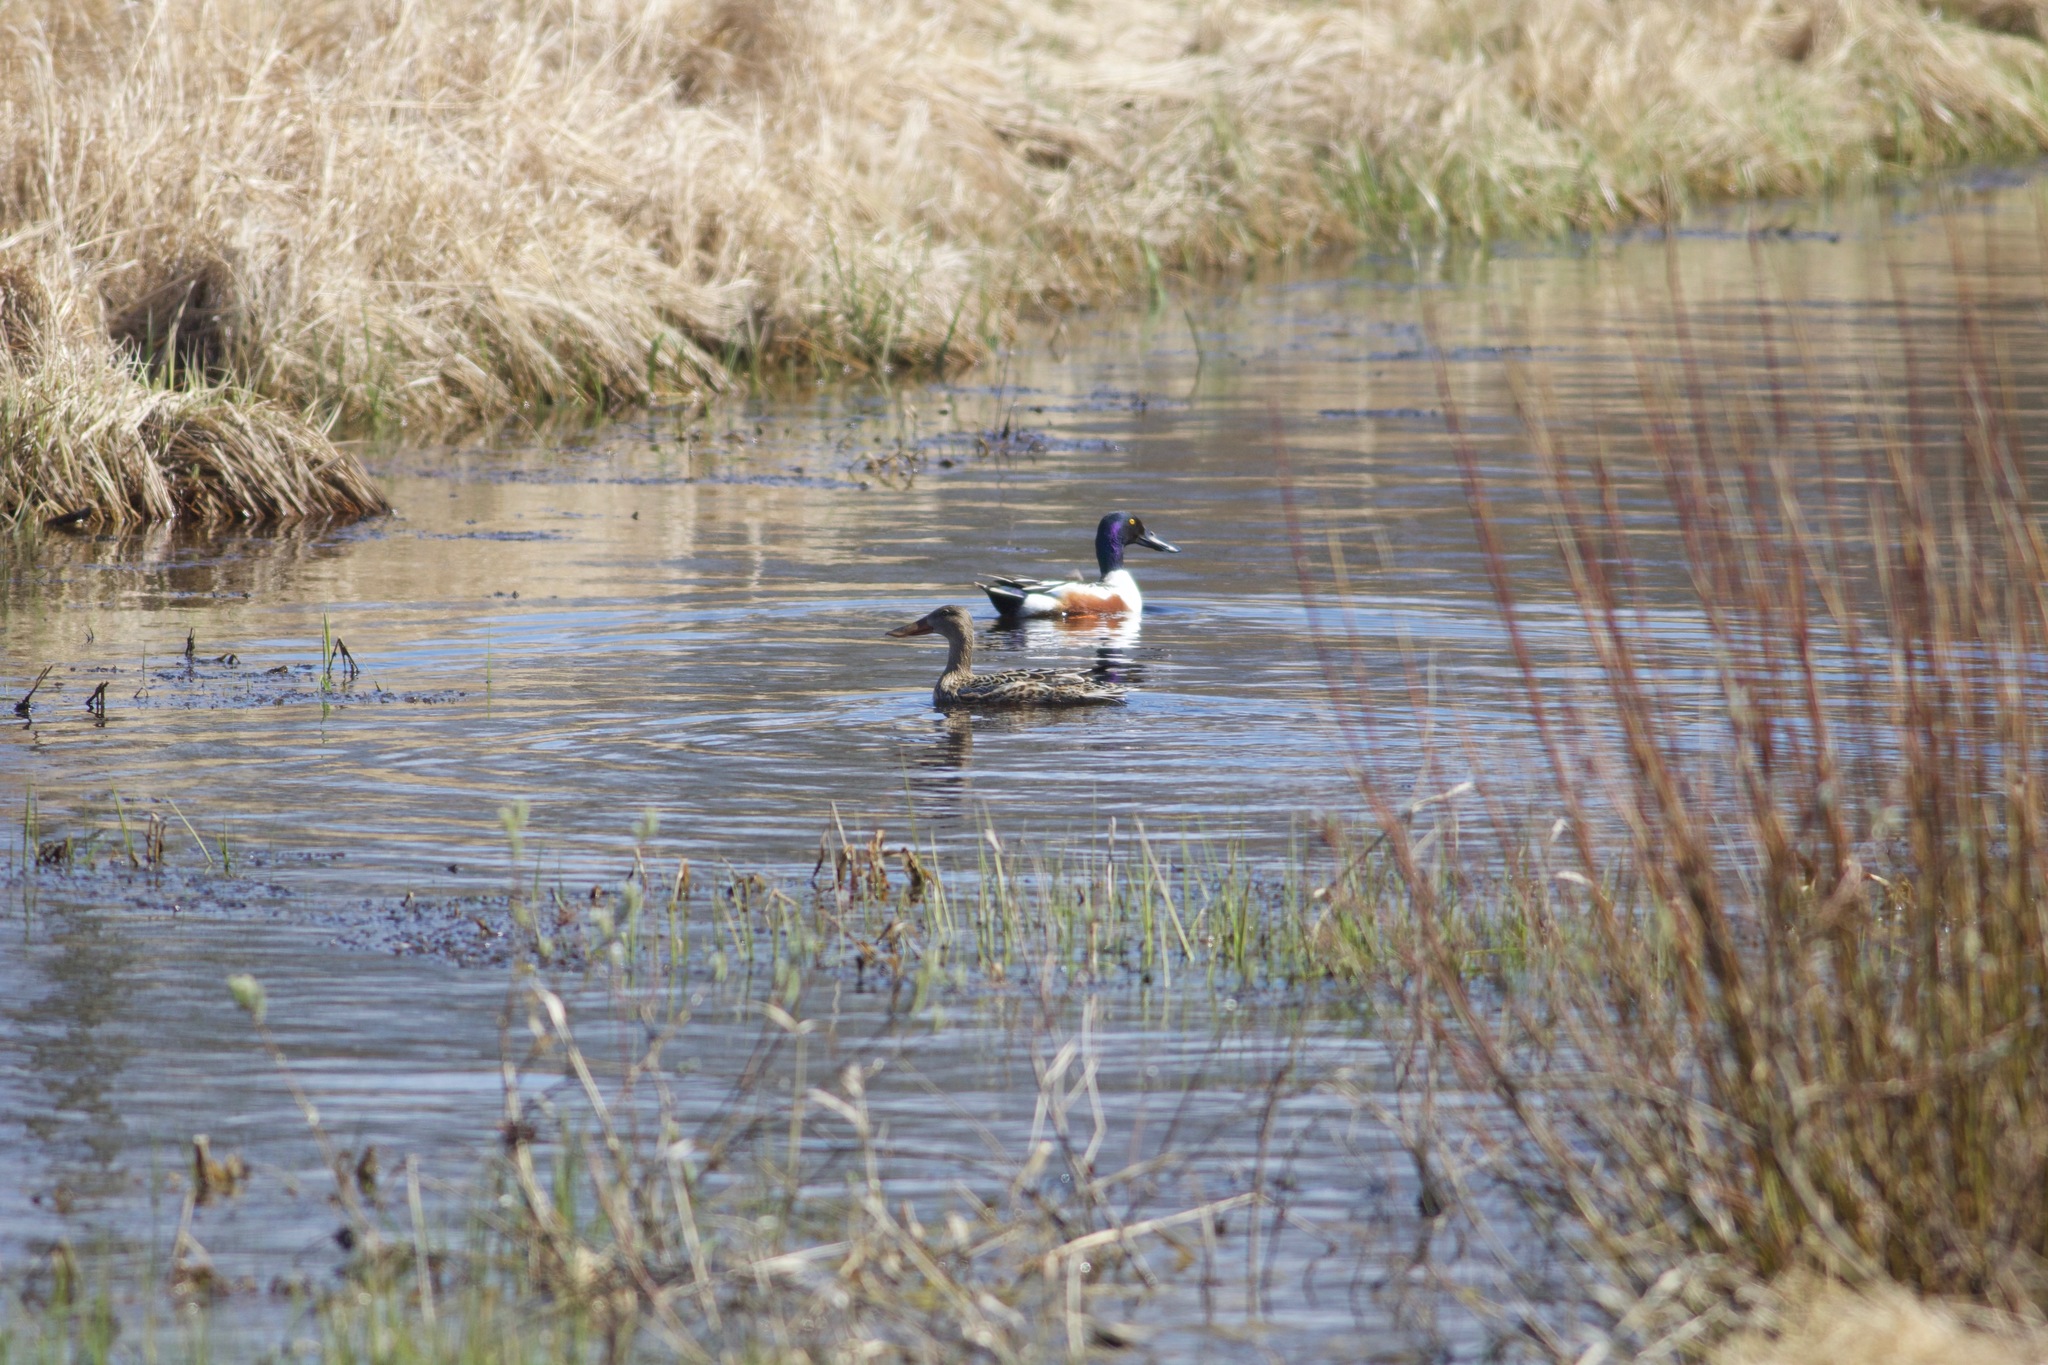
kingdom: Animalia
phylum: Chordata
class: Aves
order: Anseriformes
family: Anatidae
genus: Spatula
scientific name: Spatula clypeata
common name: Northern shoveler
